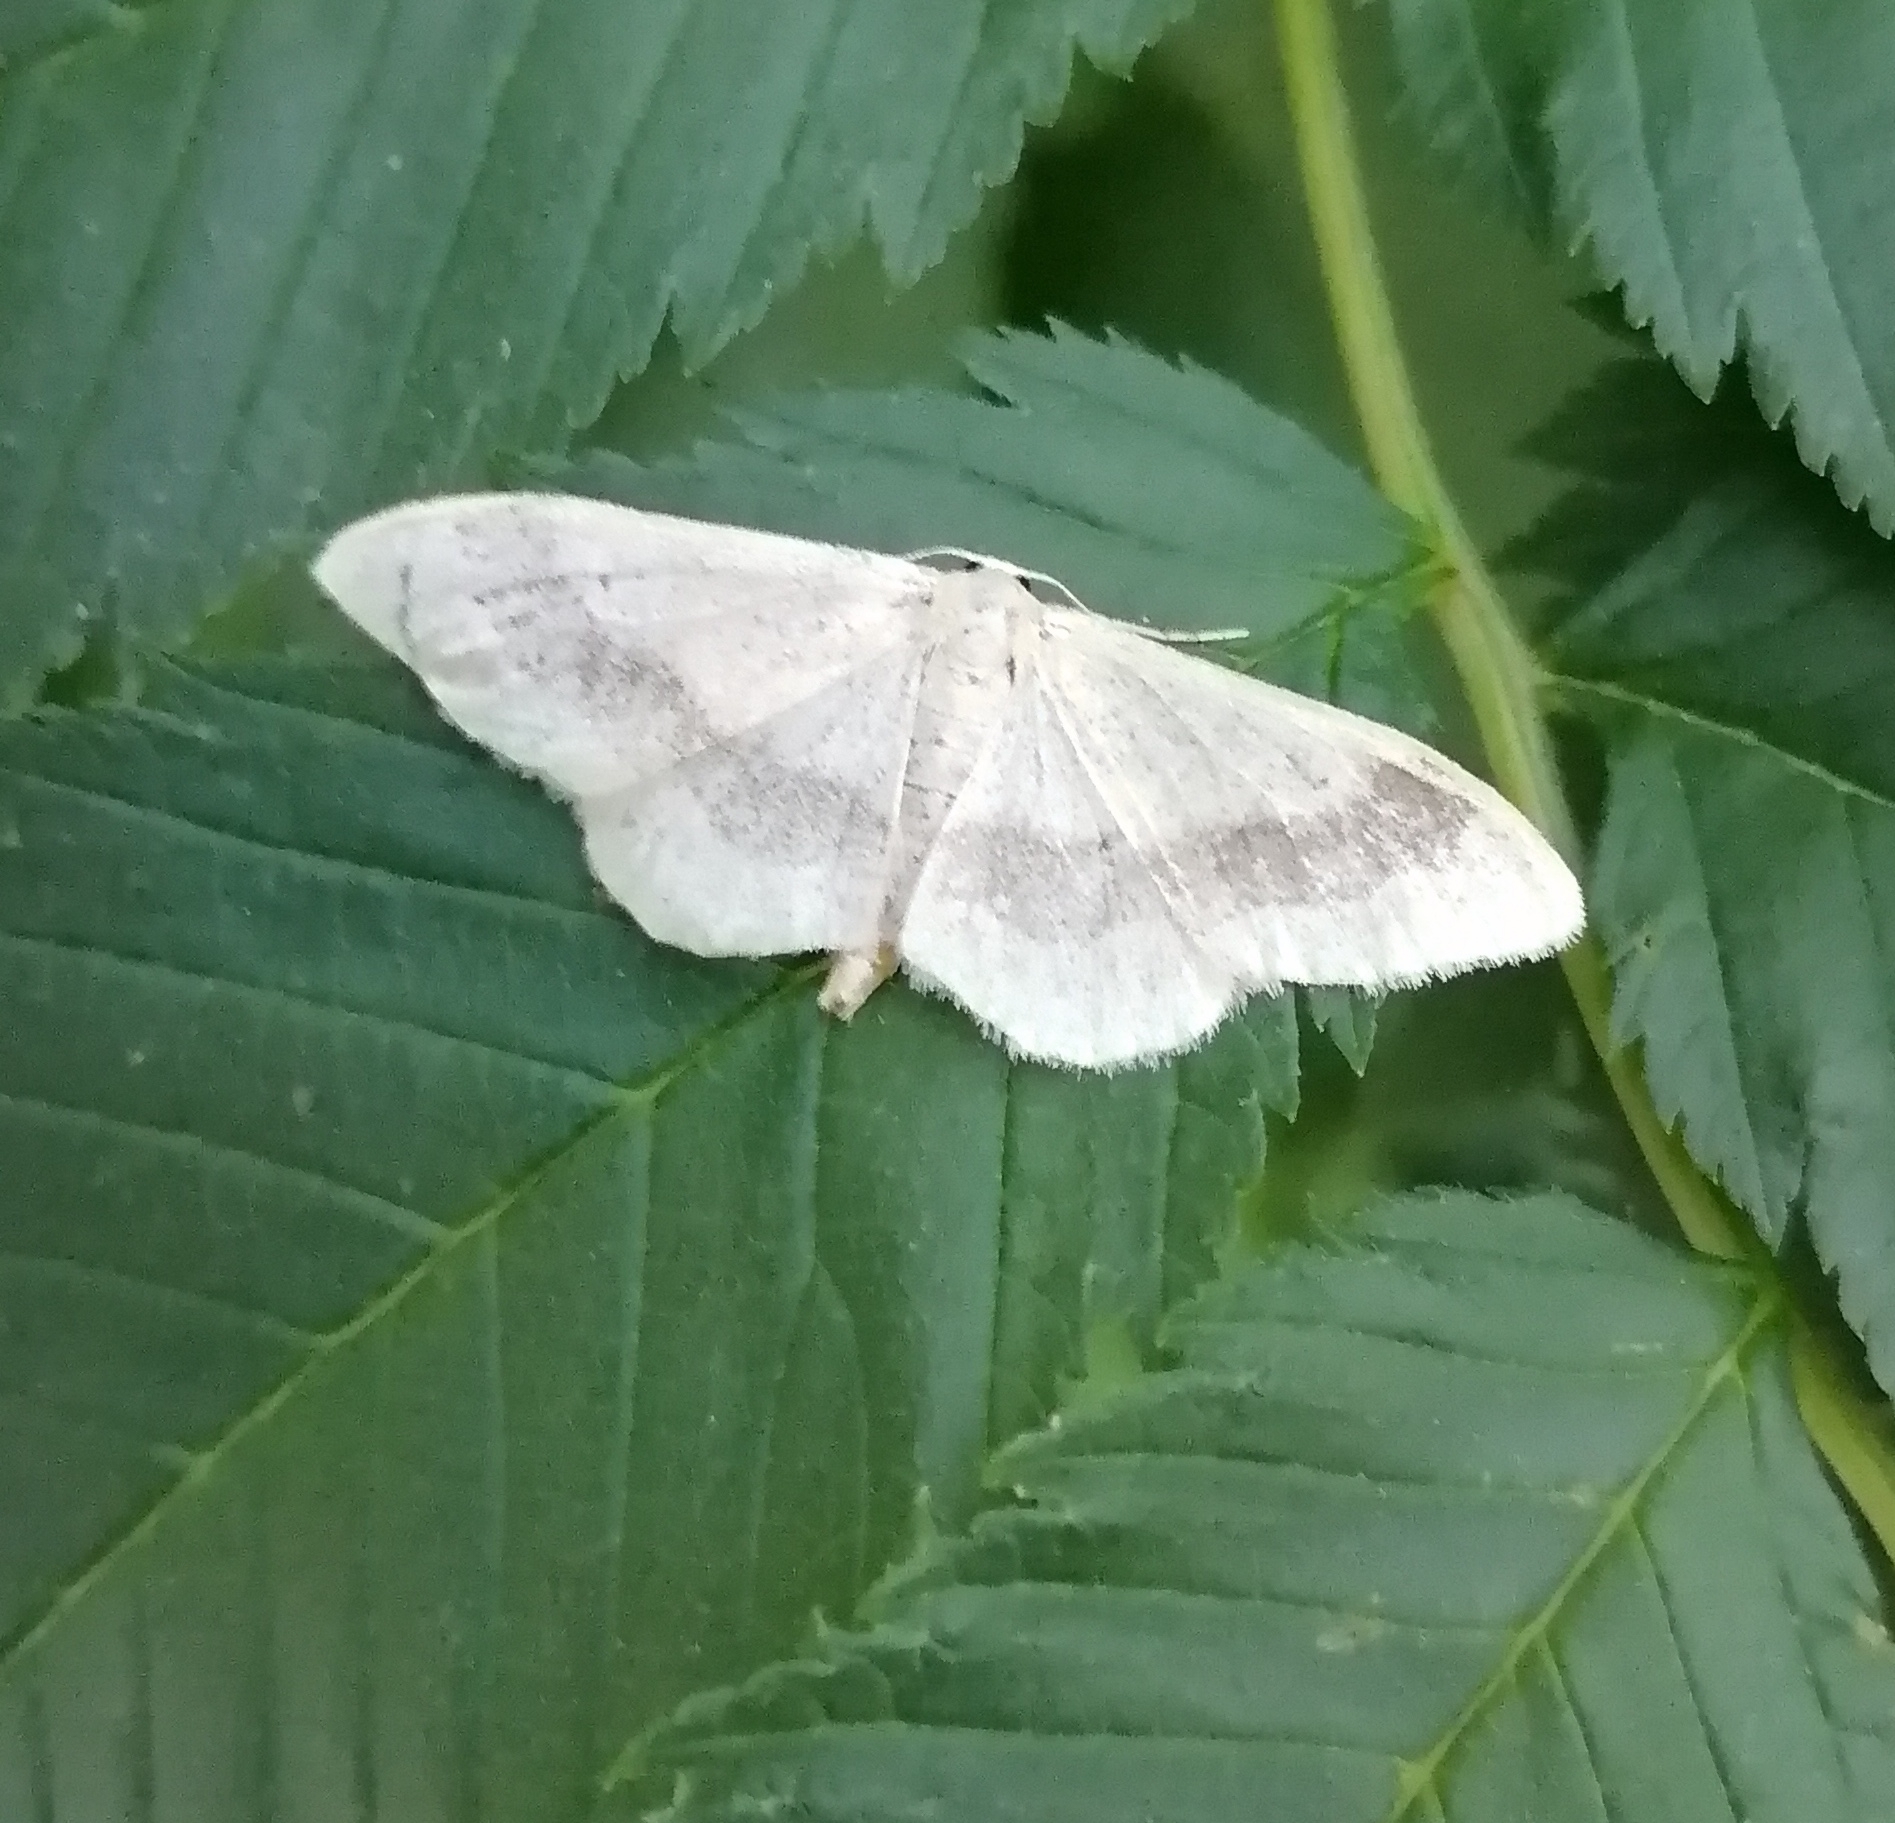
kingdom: Animalia
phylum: Arthropoda
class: Insecta
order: Lepidoptera
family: Geometridae
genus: Idaea
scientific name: Idaea aversata
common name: Riband wave
